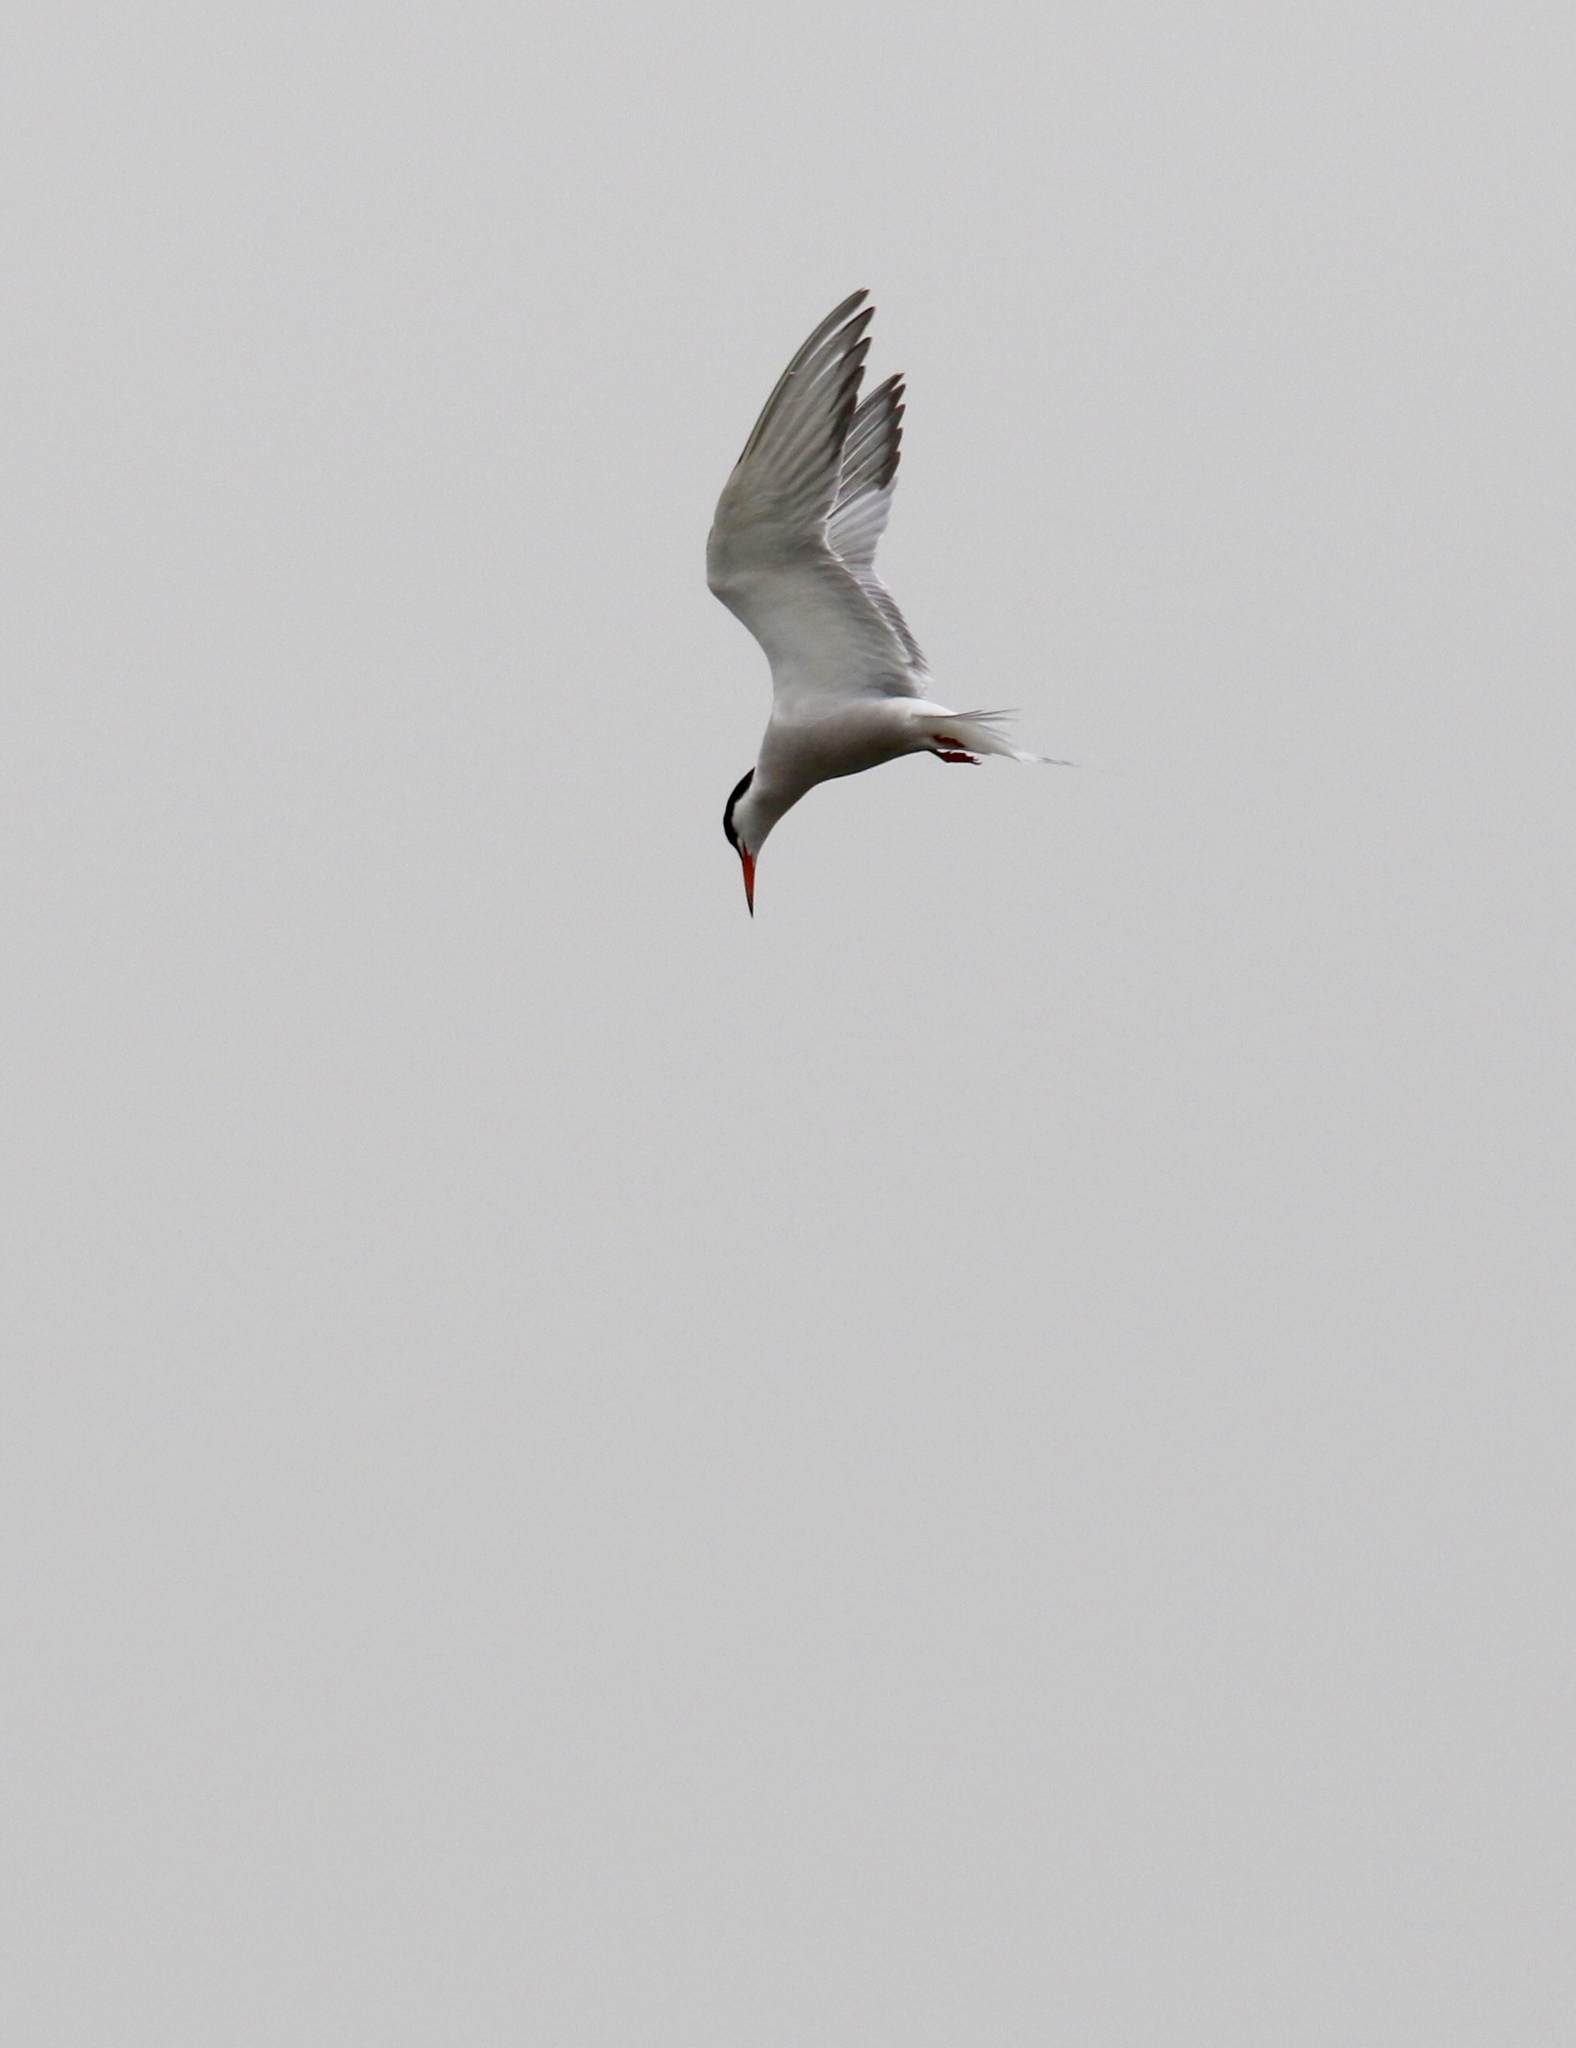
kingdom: Animalia
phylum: Chordata
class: Aves
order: Charadriiformes
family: Laridae
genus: Sterna
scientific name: Sterna hirundo
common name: Common tern
